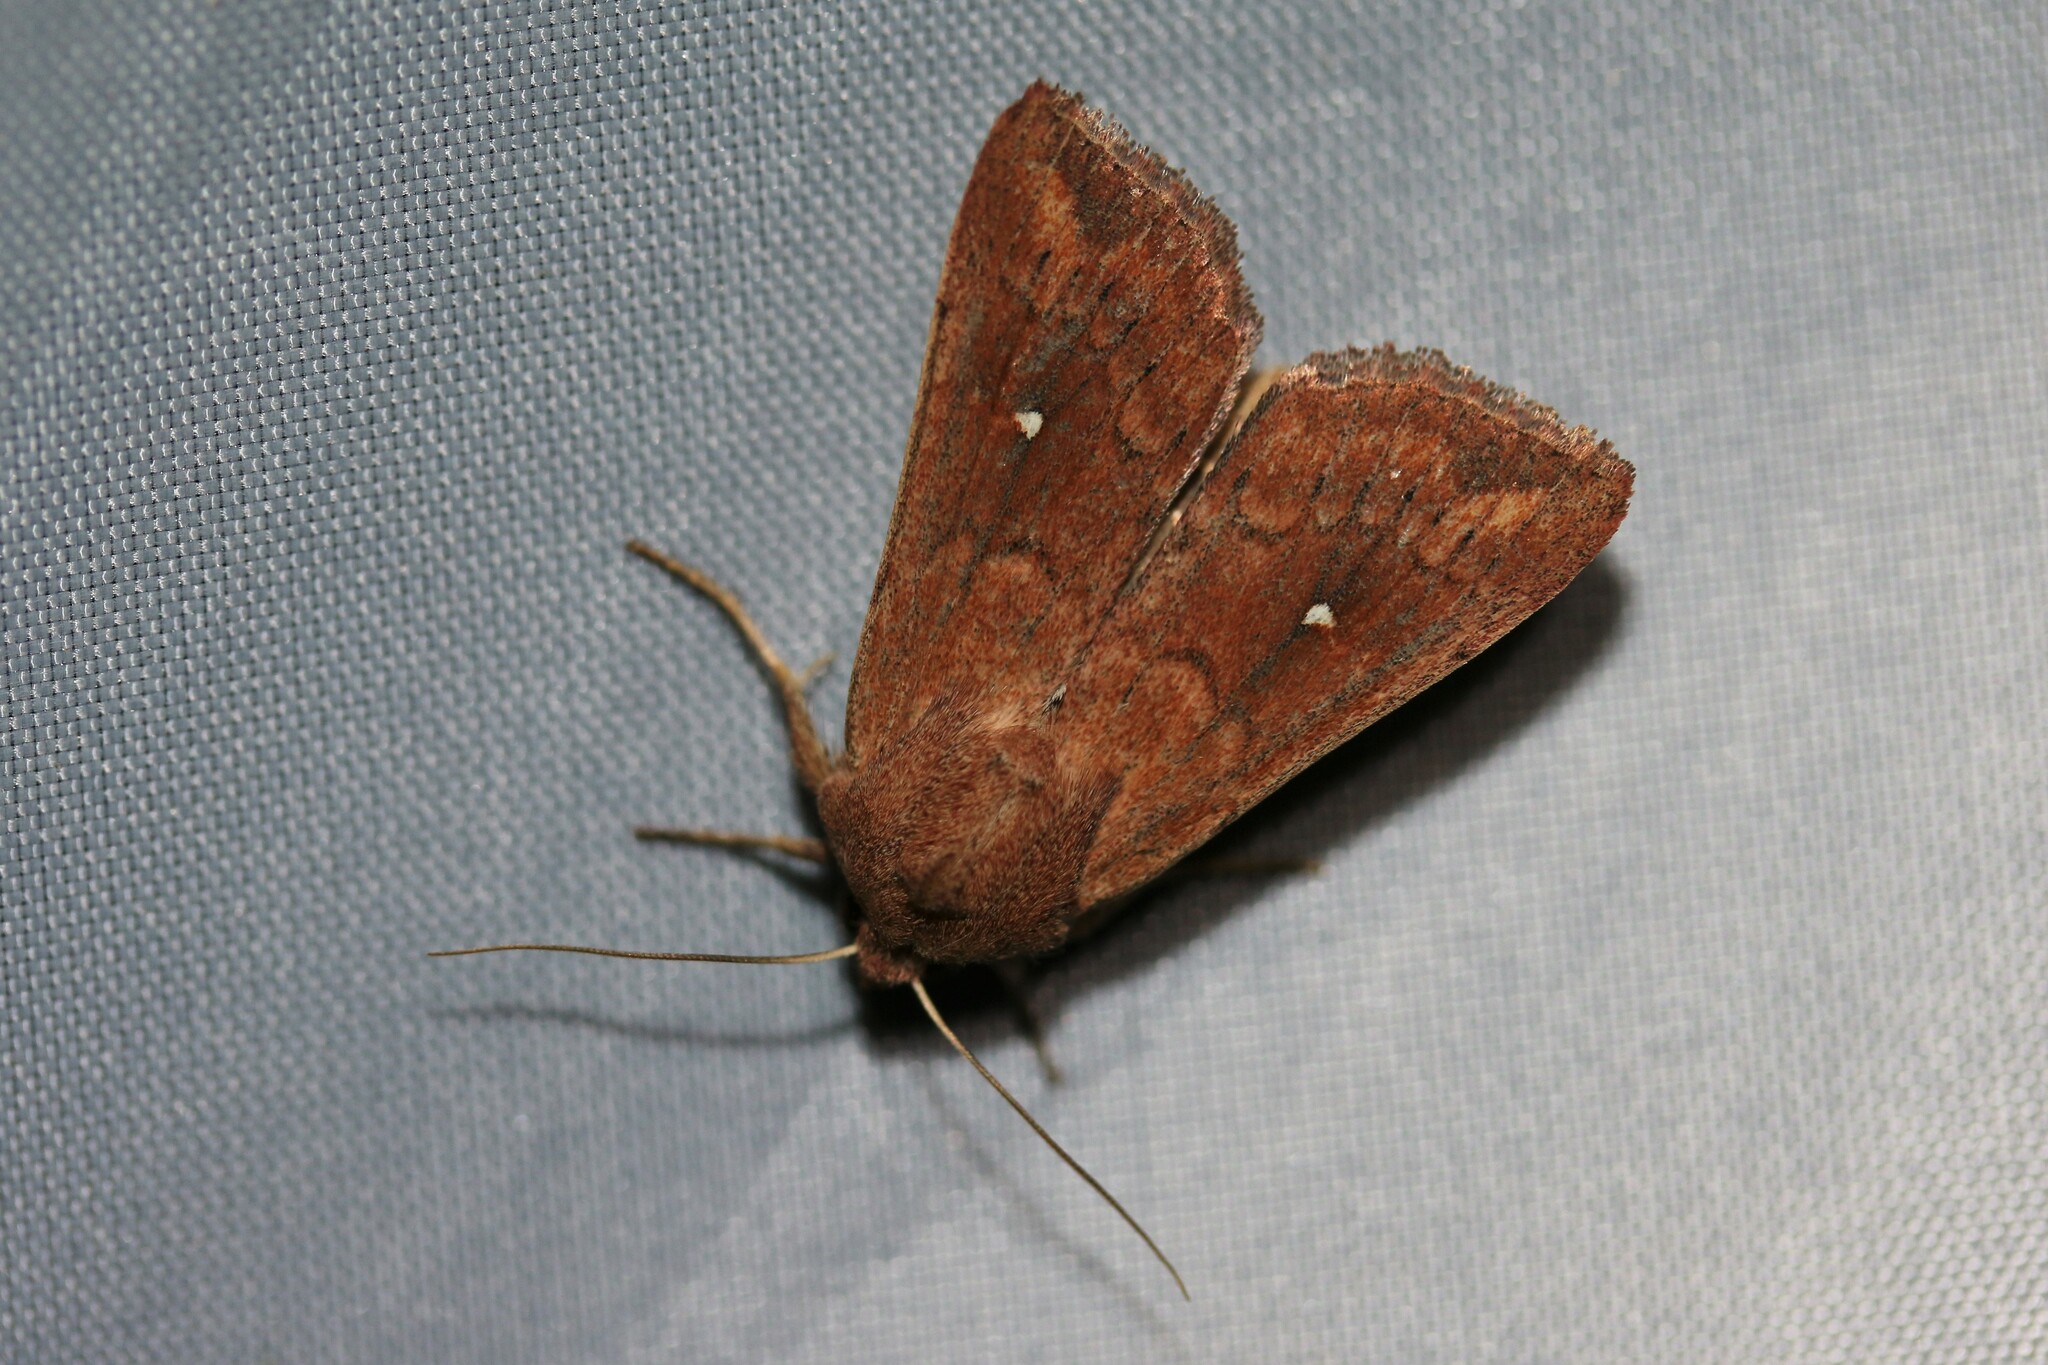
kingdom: Animalia
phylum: Arthropoda
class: Insecta
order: Lepidoptera
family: Noctuidae
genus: Mythimna
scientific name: Mythimna albipuncta
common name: White-point
